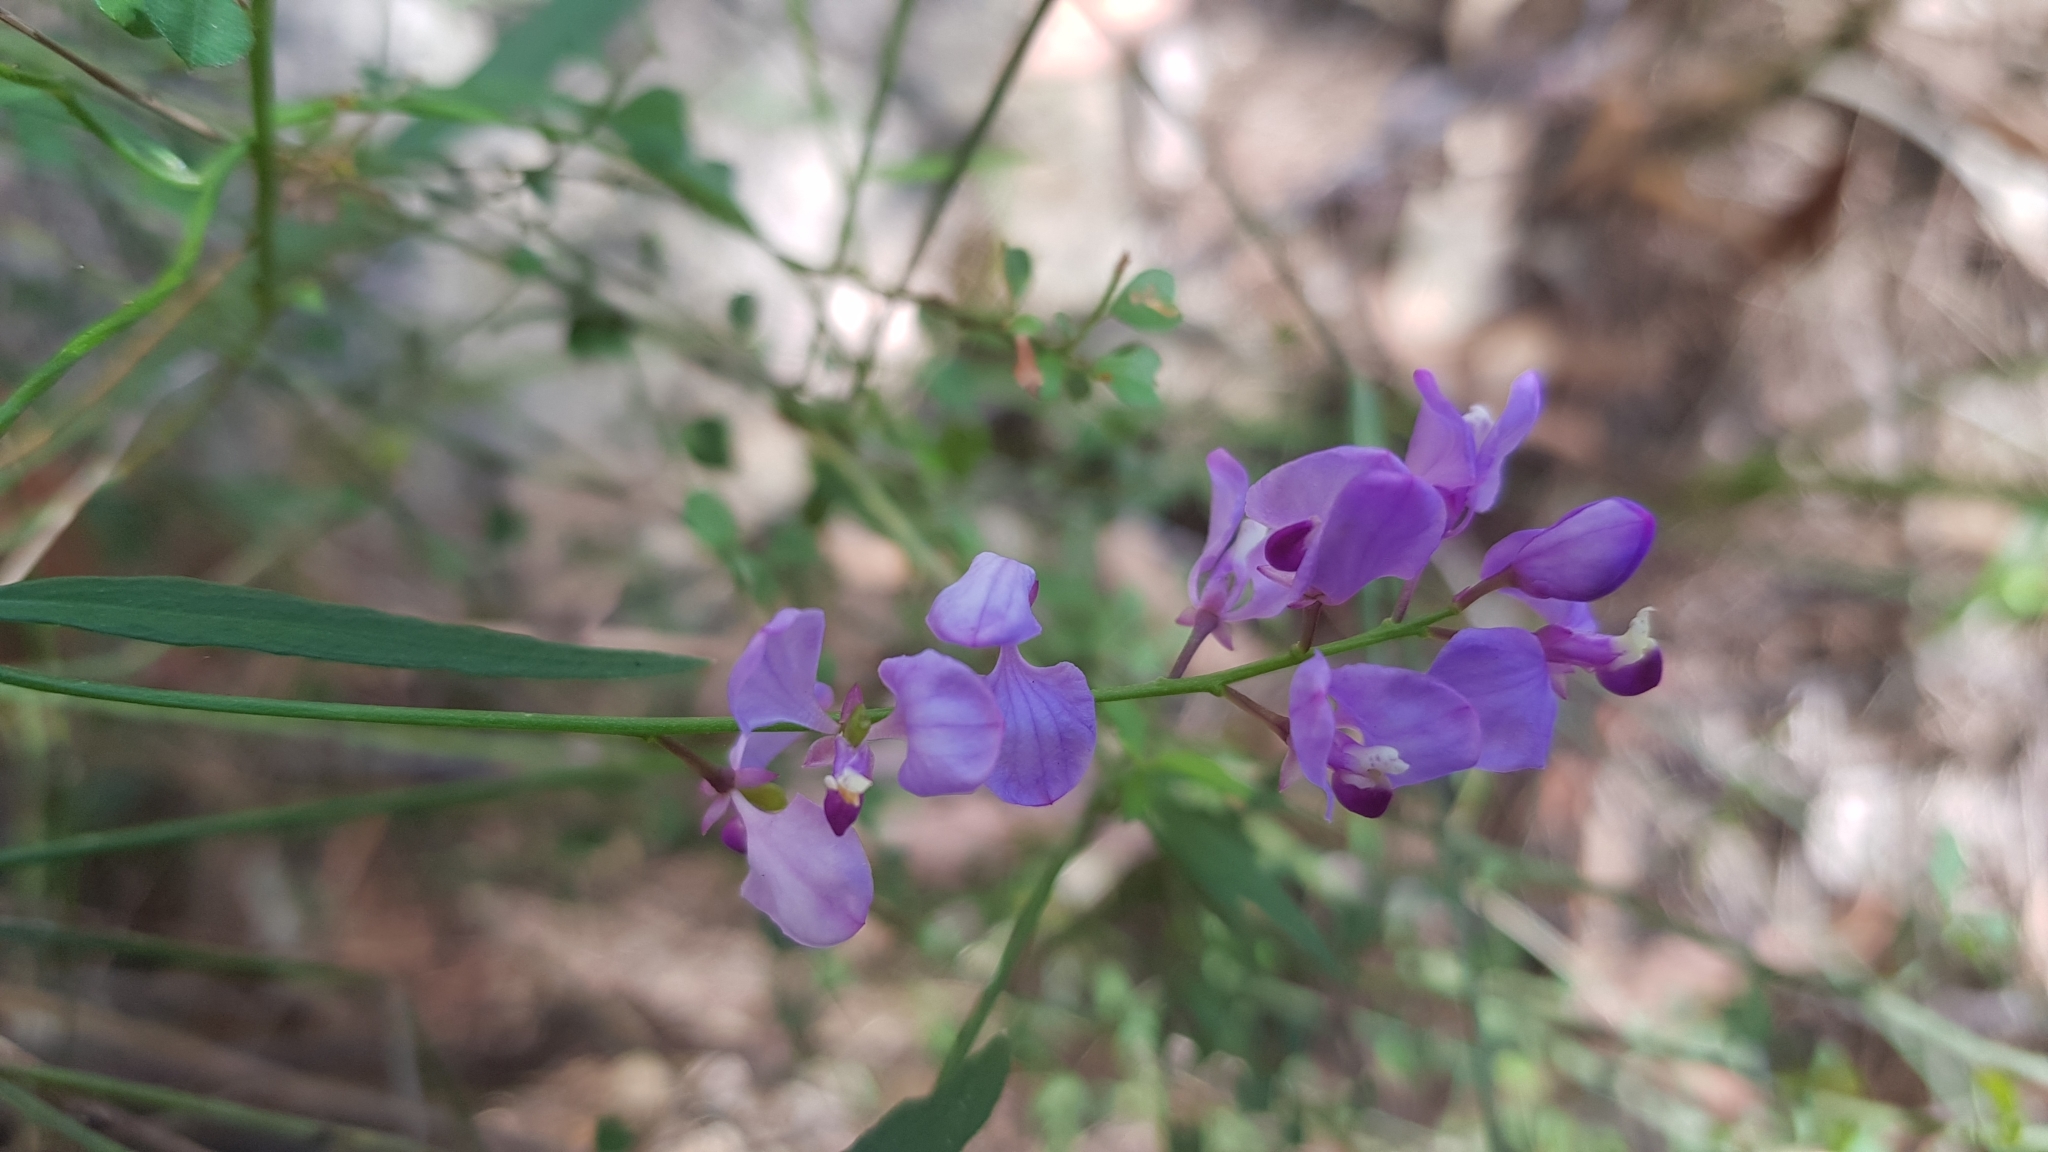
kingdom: Plantae
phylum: Tracheophyta
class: Magnoliopsida
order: Fabales
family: Polygalaceae
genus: Comesperma
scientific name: Comesperma volubile
